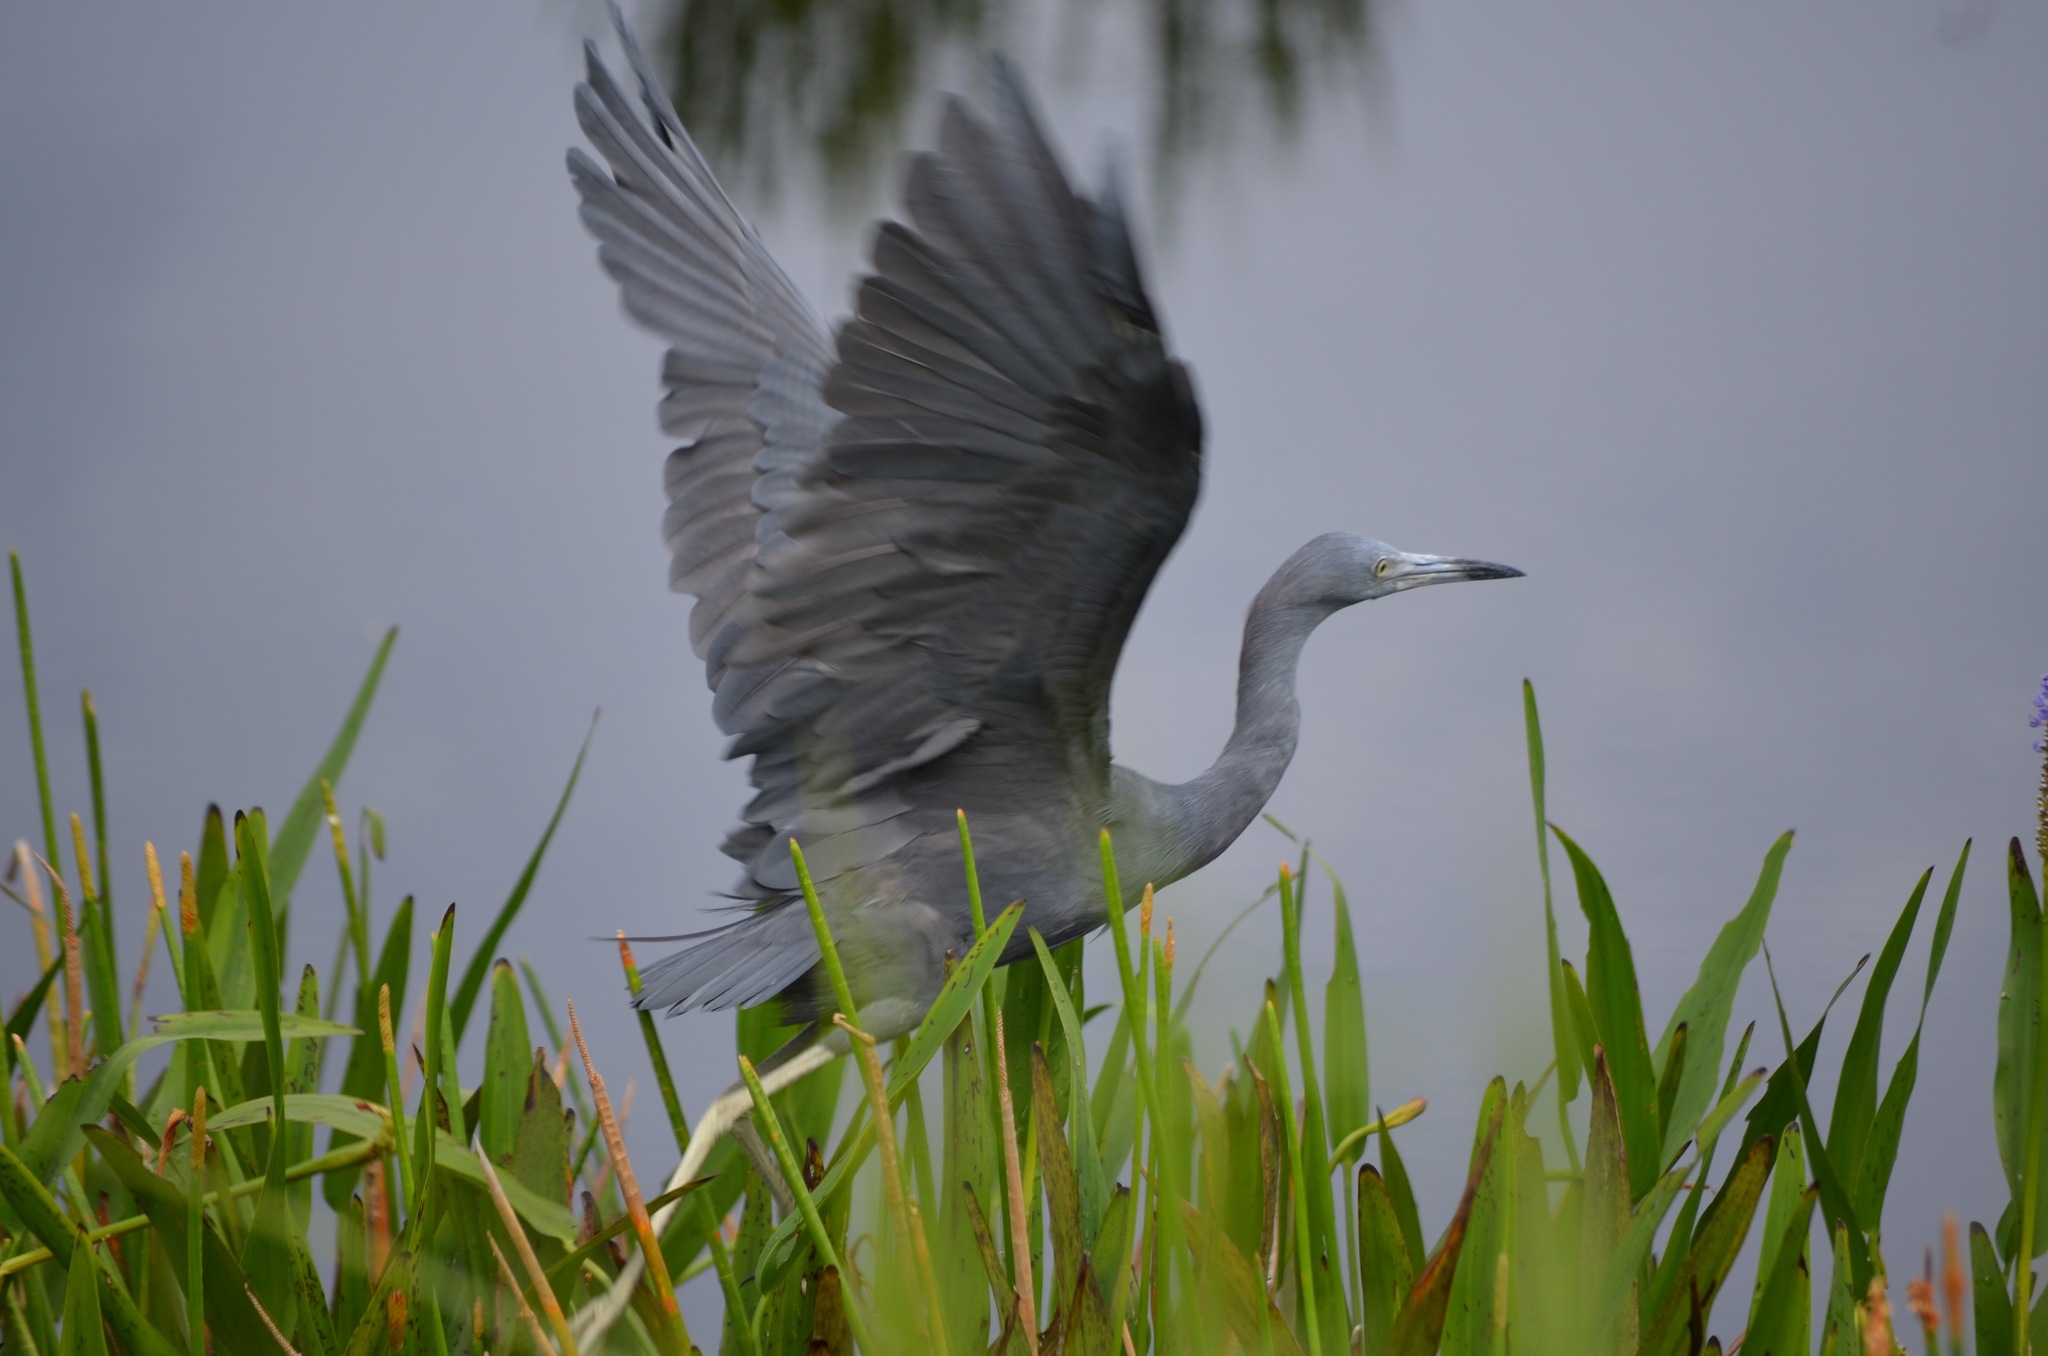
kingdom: Animalia
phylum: Chordata
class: Aves
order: Pelecaniformes
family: Ardeidae
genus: Egretta
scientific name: Egretta caerulea
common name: Little blue heron
